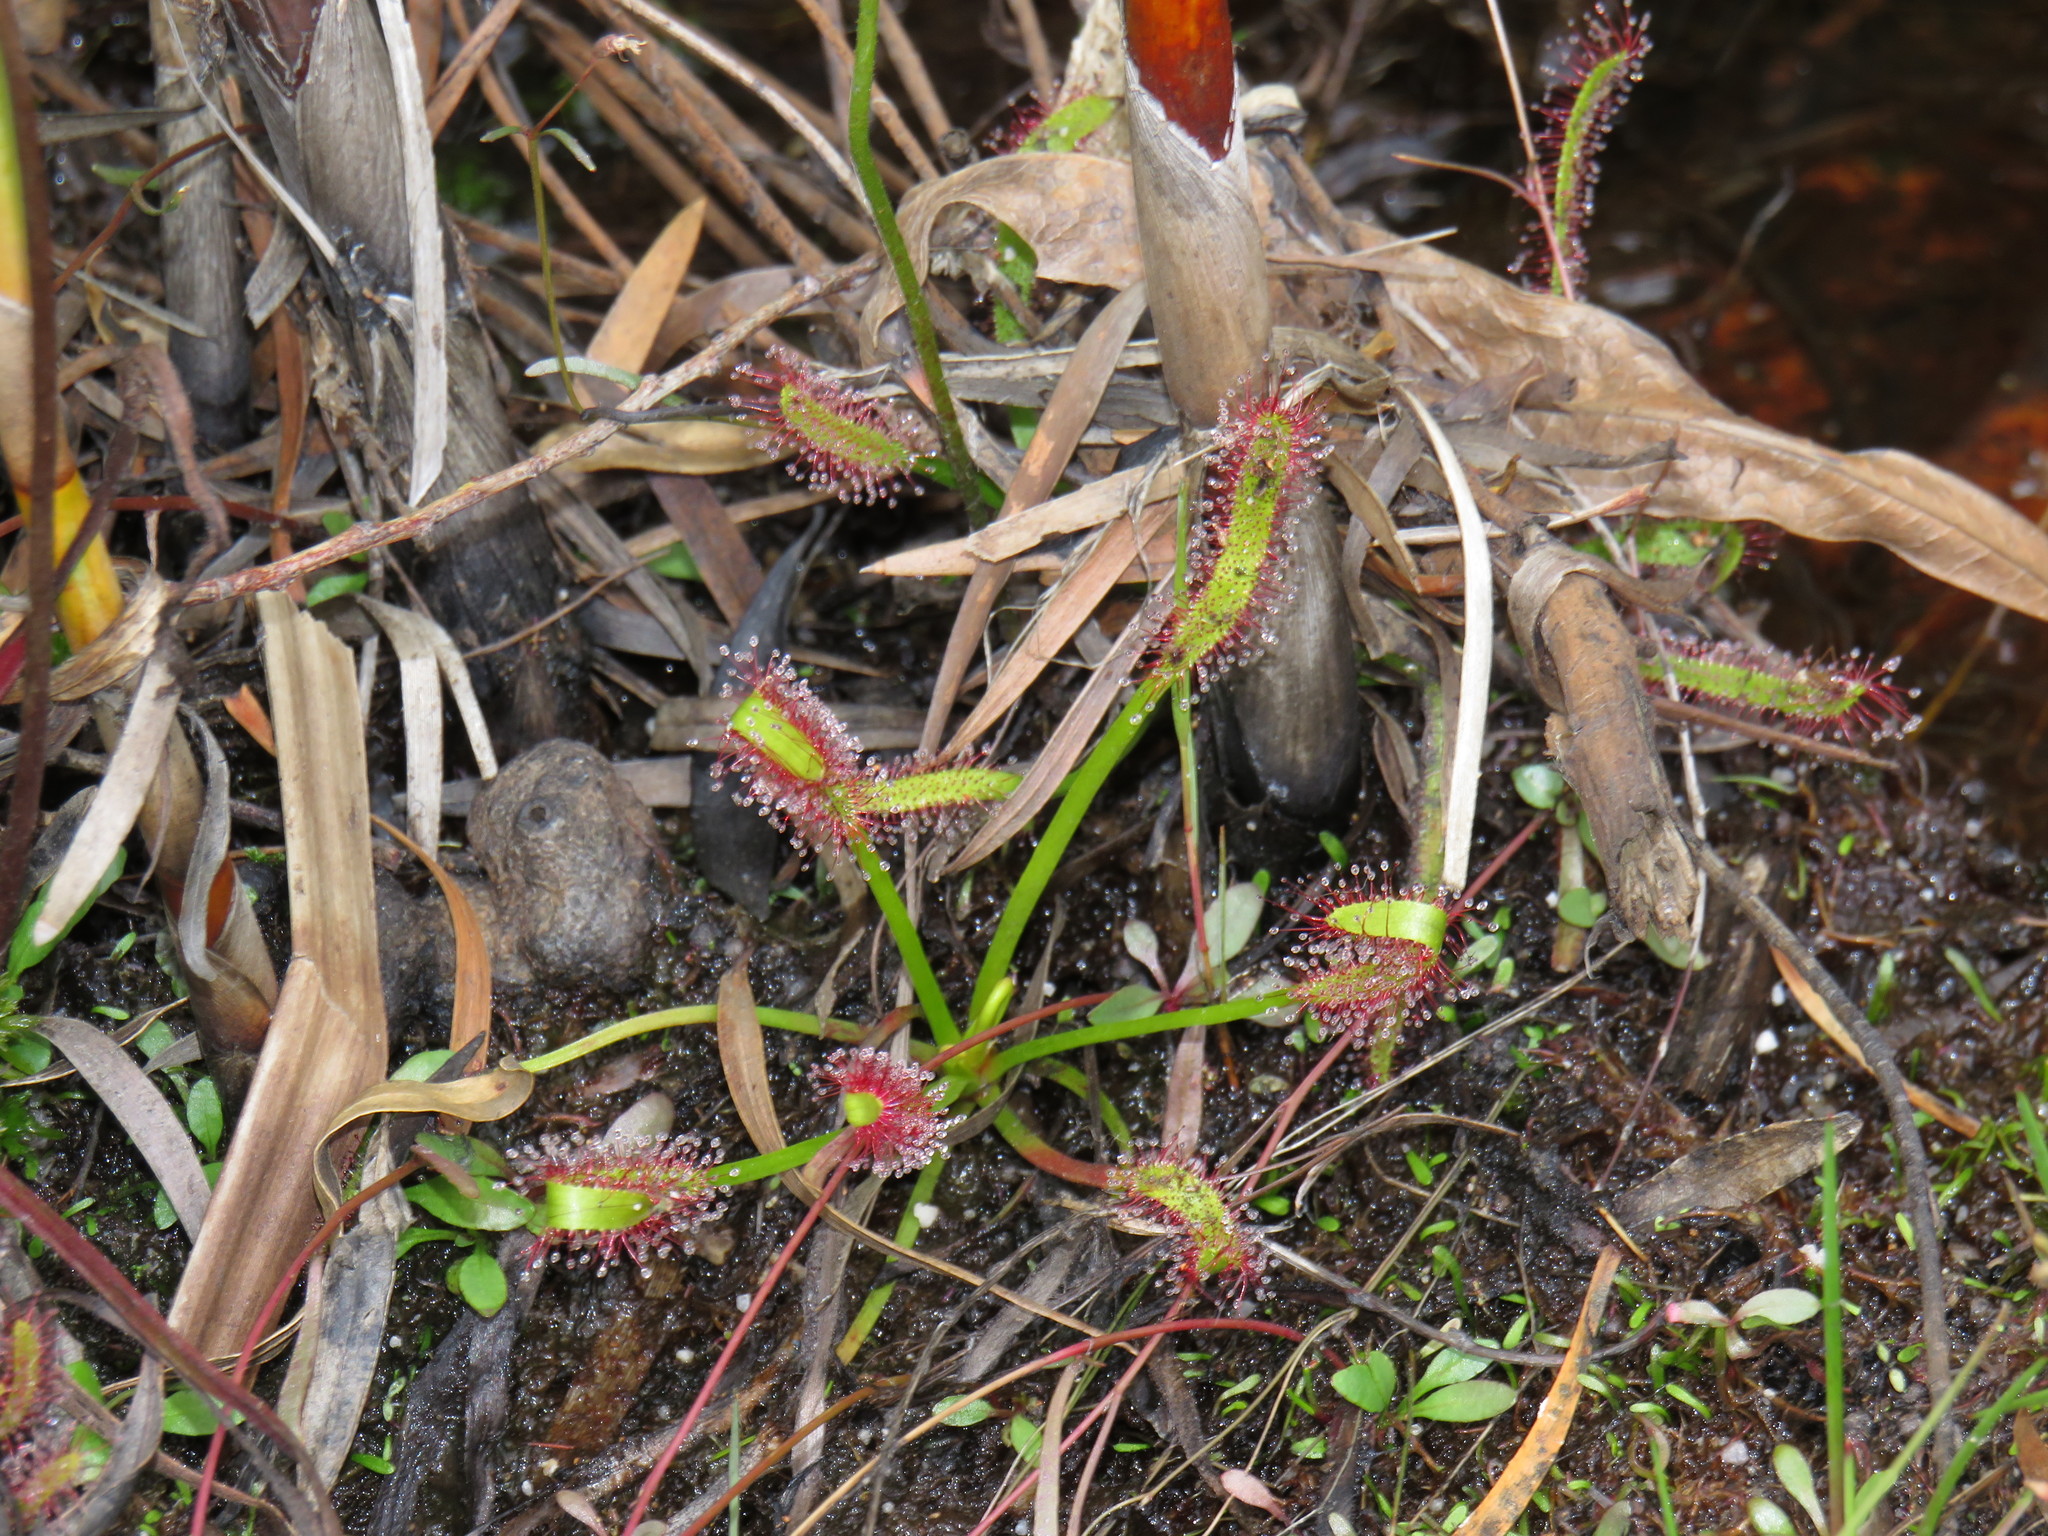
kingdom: Plantae
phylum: Tracheophyta
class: Magnoliopsida
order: Caryophyllales
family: Droseraceae
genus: Drosera
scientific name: Drosera capensis
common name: Cape sundew
